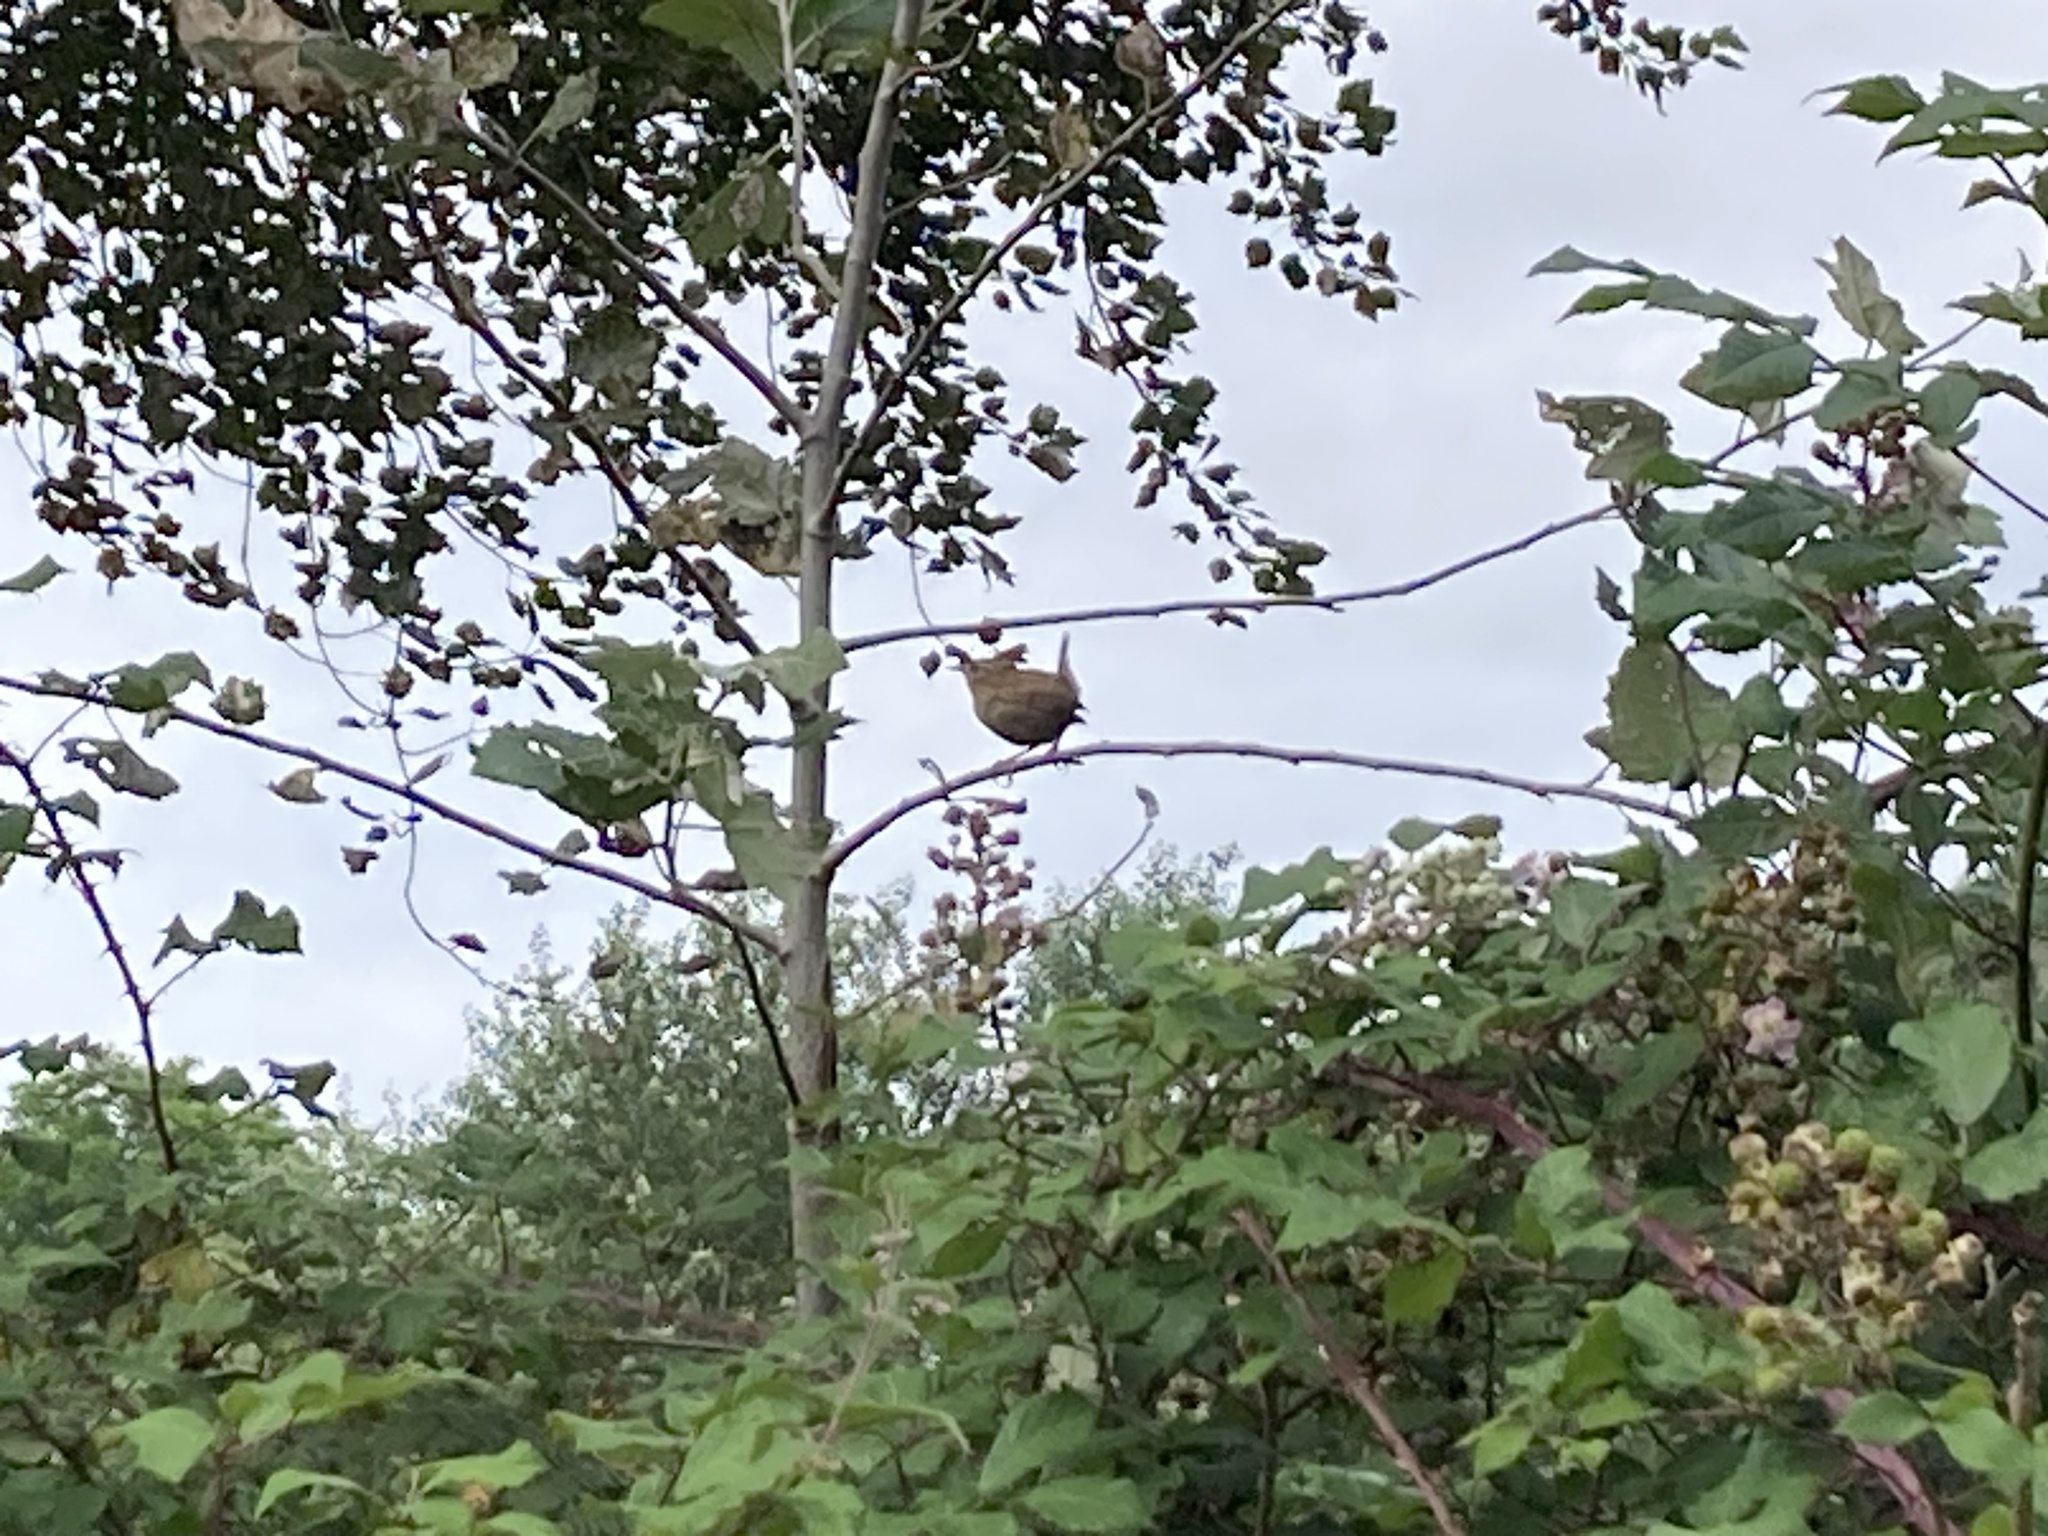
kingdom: Animalia
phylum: Chordata
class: Aves
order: Passeriformes
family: Troglodytidae
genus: Troglodytes
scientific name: Troglodytes troglodytes
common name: Eurasian wren
